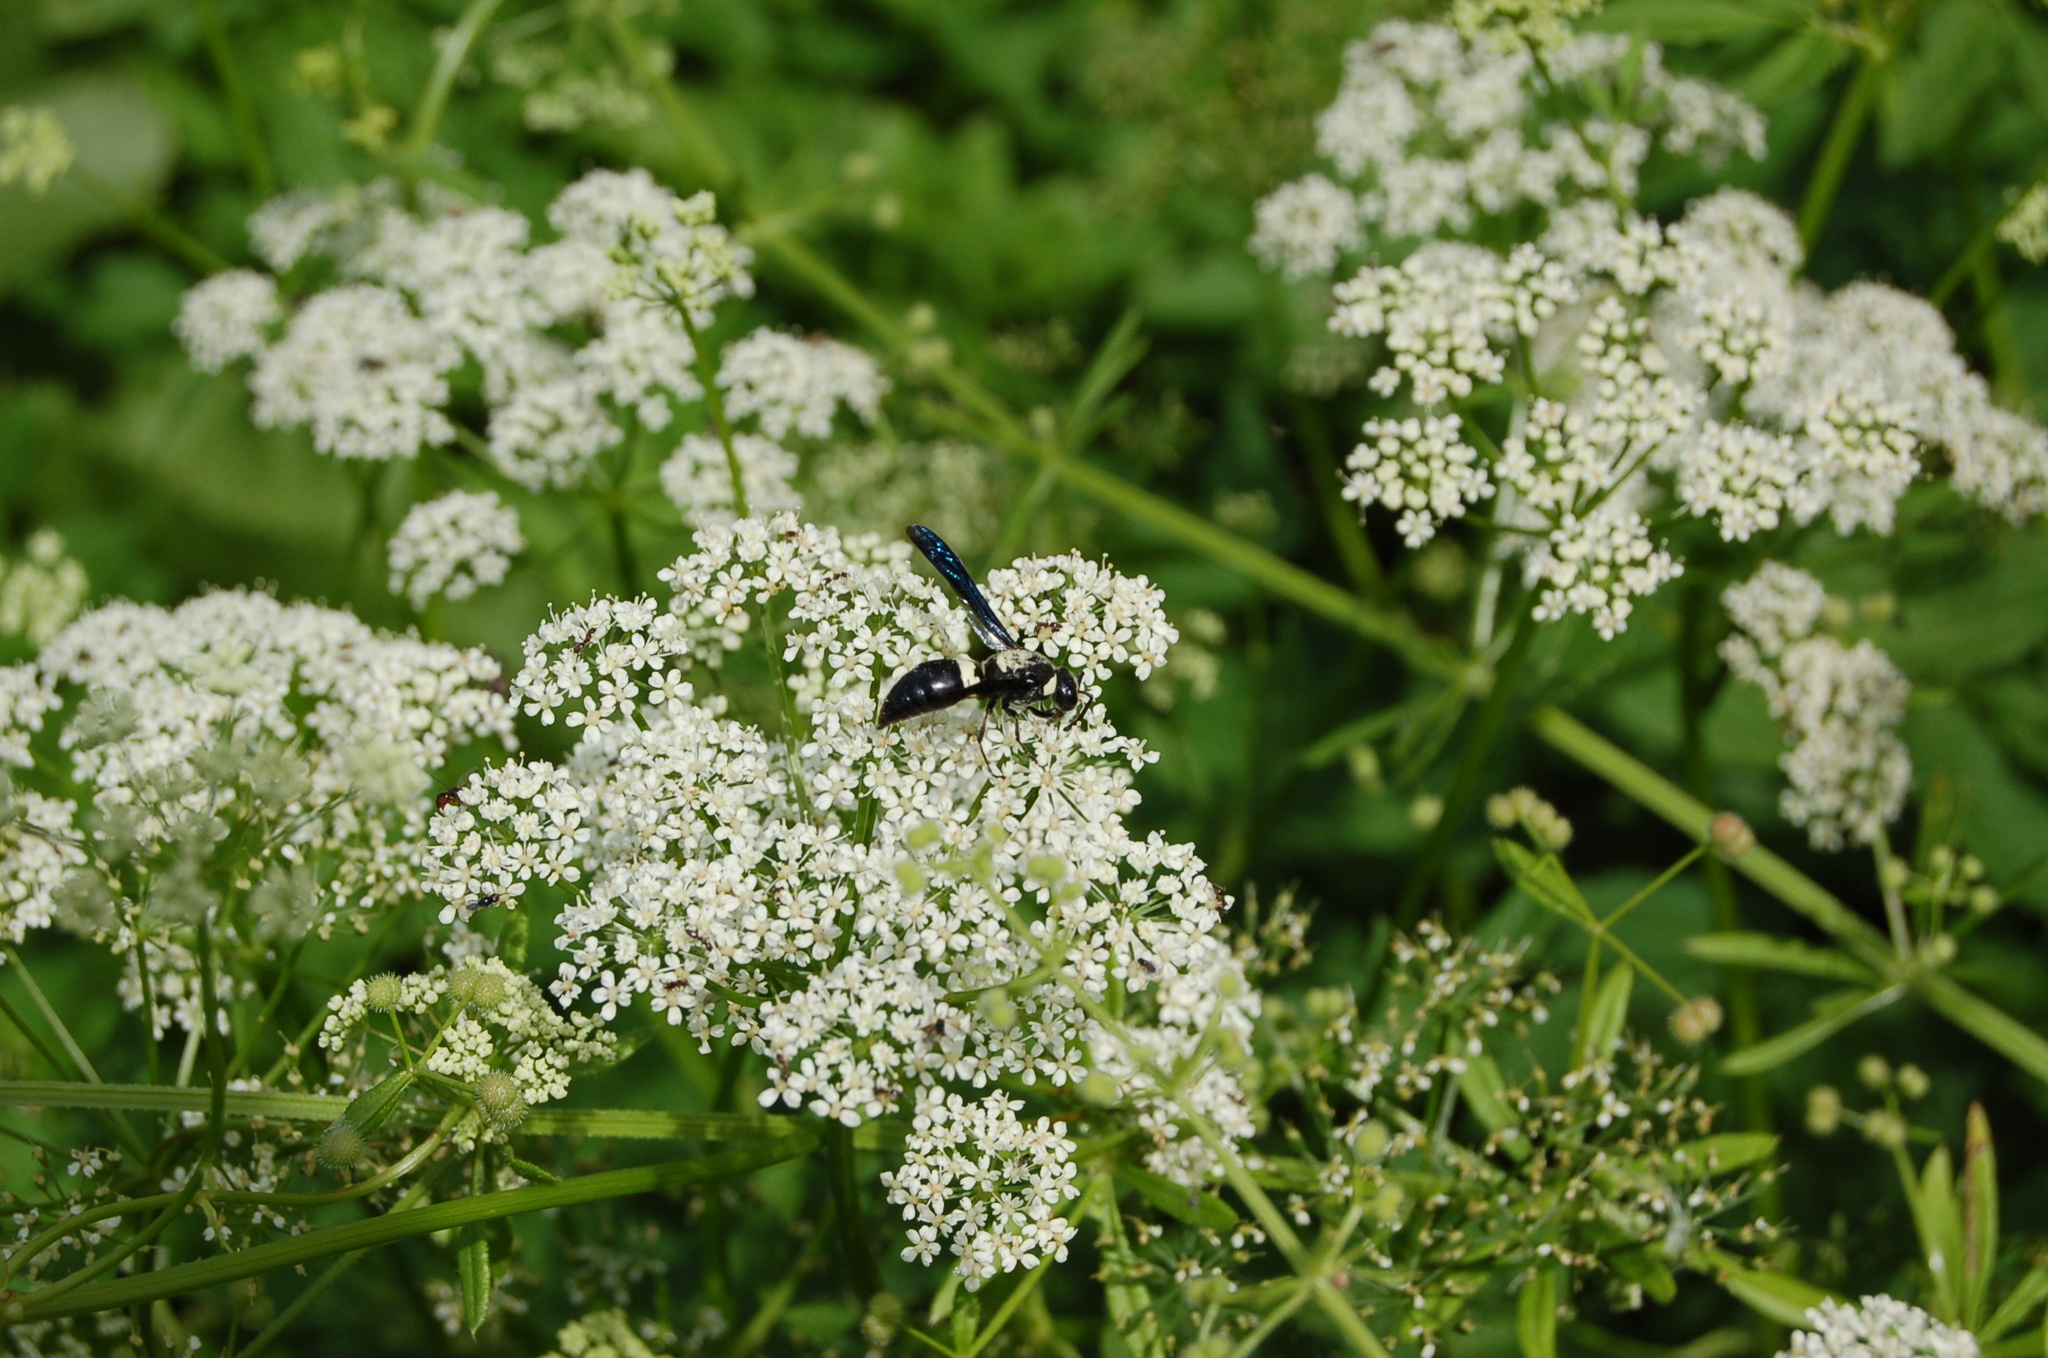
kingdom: Animalia
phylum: Arthropoda
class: Insecta
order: Hymenoptera
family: Eumenidae
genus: Monobia
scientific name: Monobia quadridens
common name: Four-toothed mason wasp
